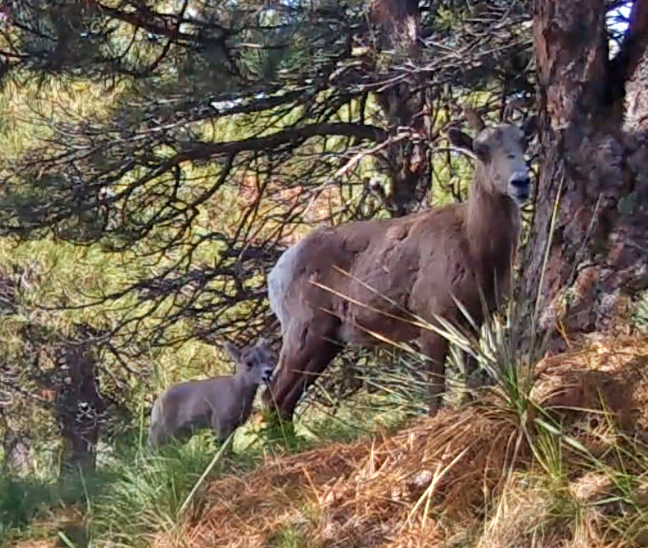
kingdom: Animalia
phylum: Chordata
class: Mammalia
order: Artiodactyla
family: Bovidae
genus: Ovis
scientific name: Ovis canadensis
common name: Bighorn sheep
